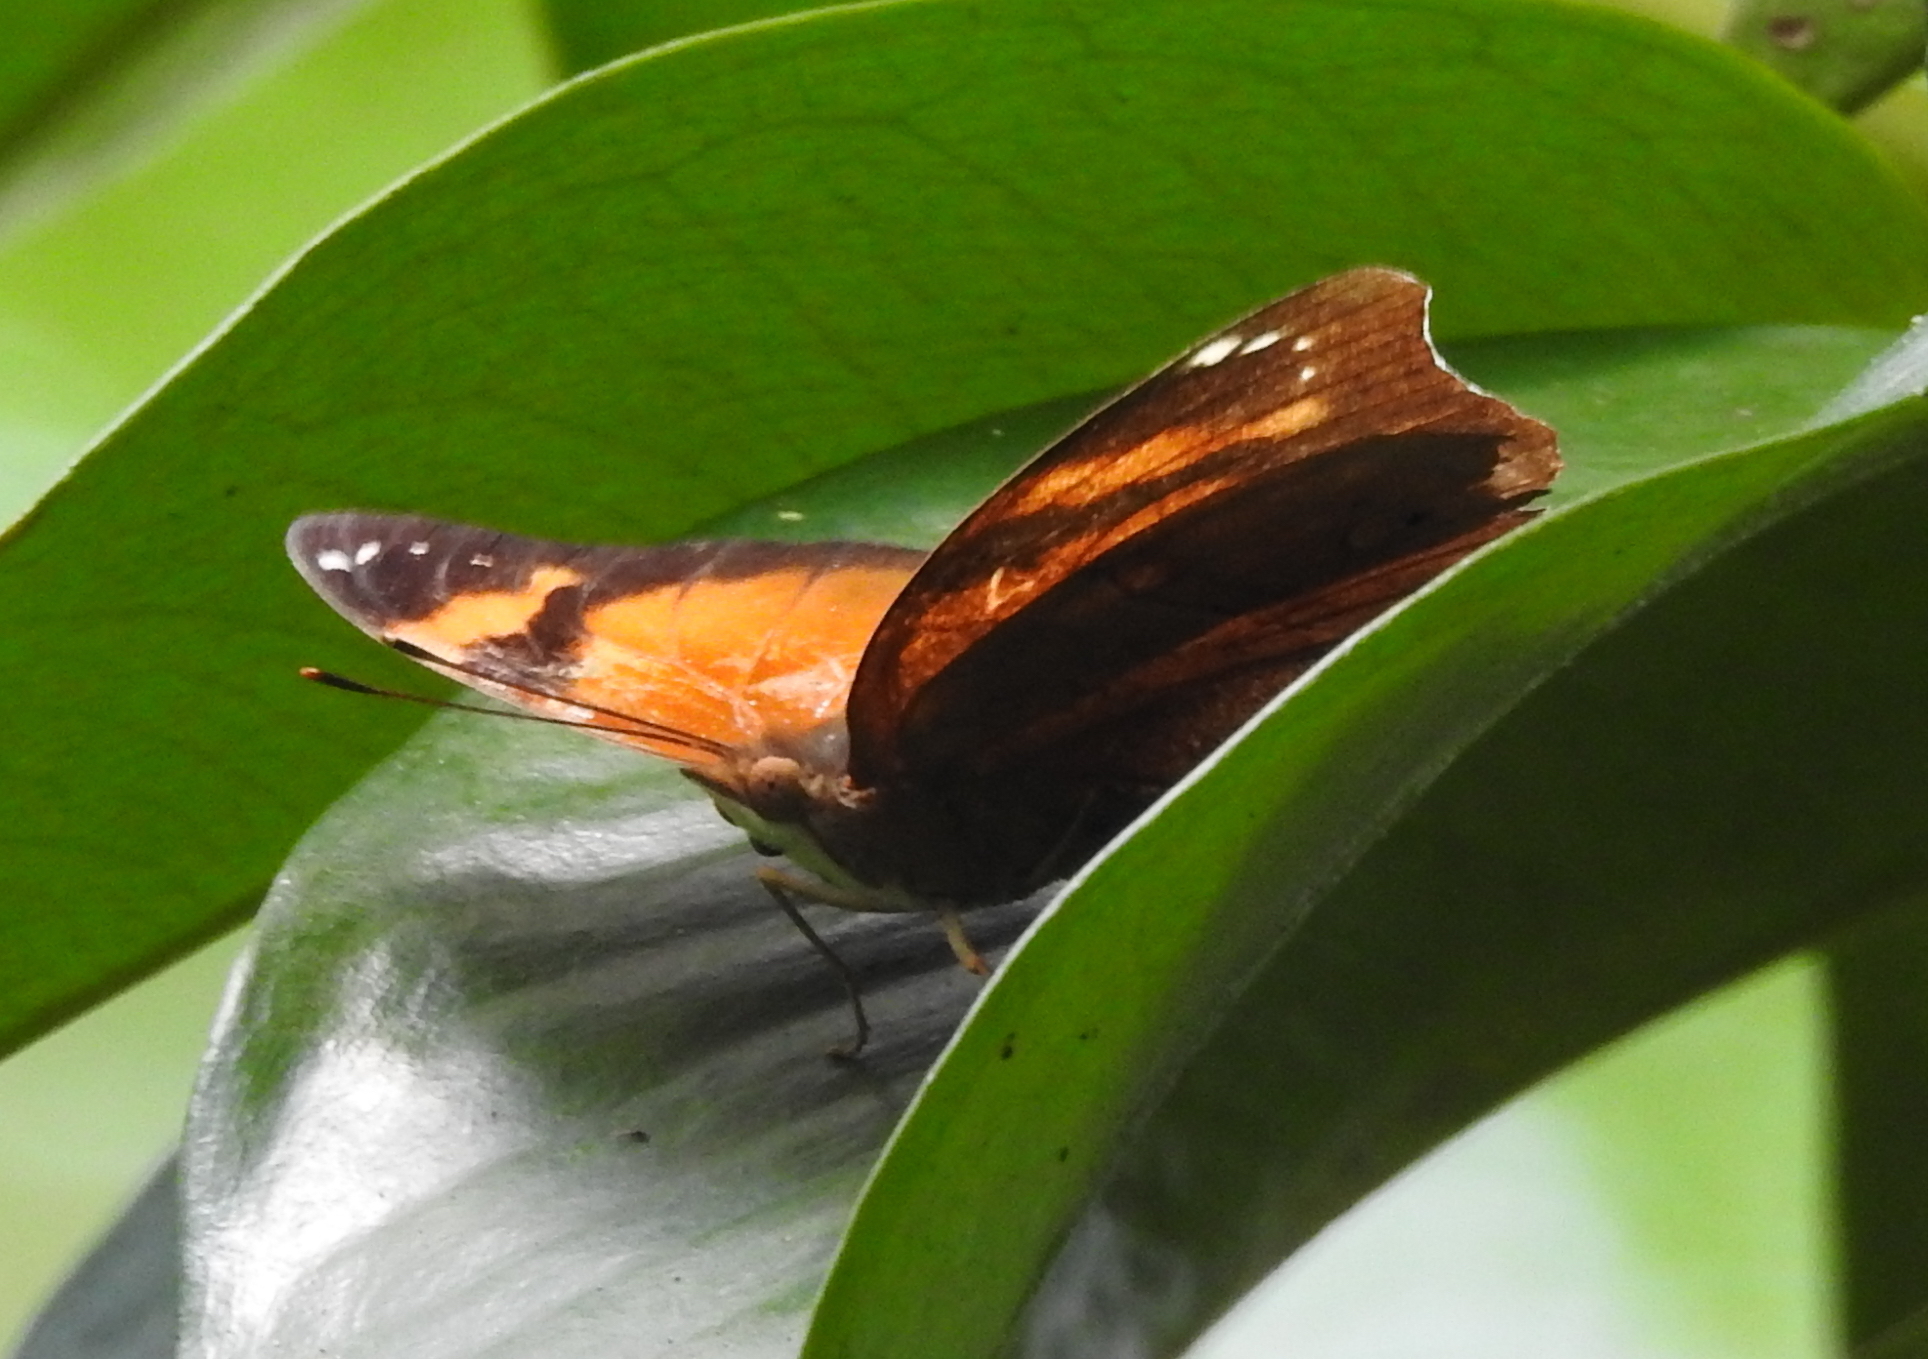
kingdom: Animalia
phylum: Arthropoda
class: Insecta
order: Lepidoptera
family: Nymphalidae
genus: Doleschallia
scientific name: Doleschallia bisaltide
